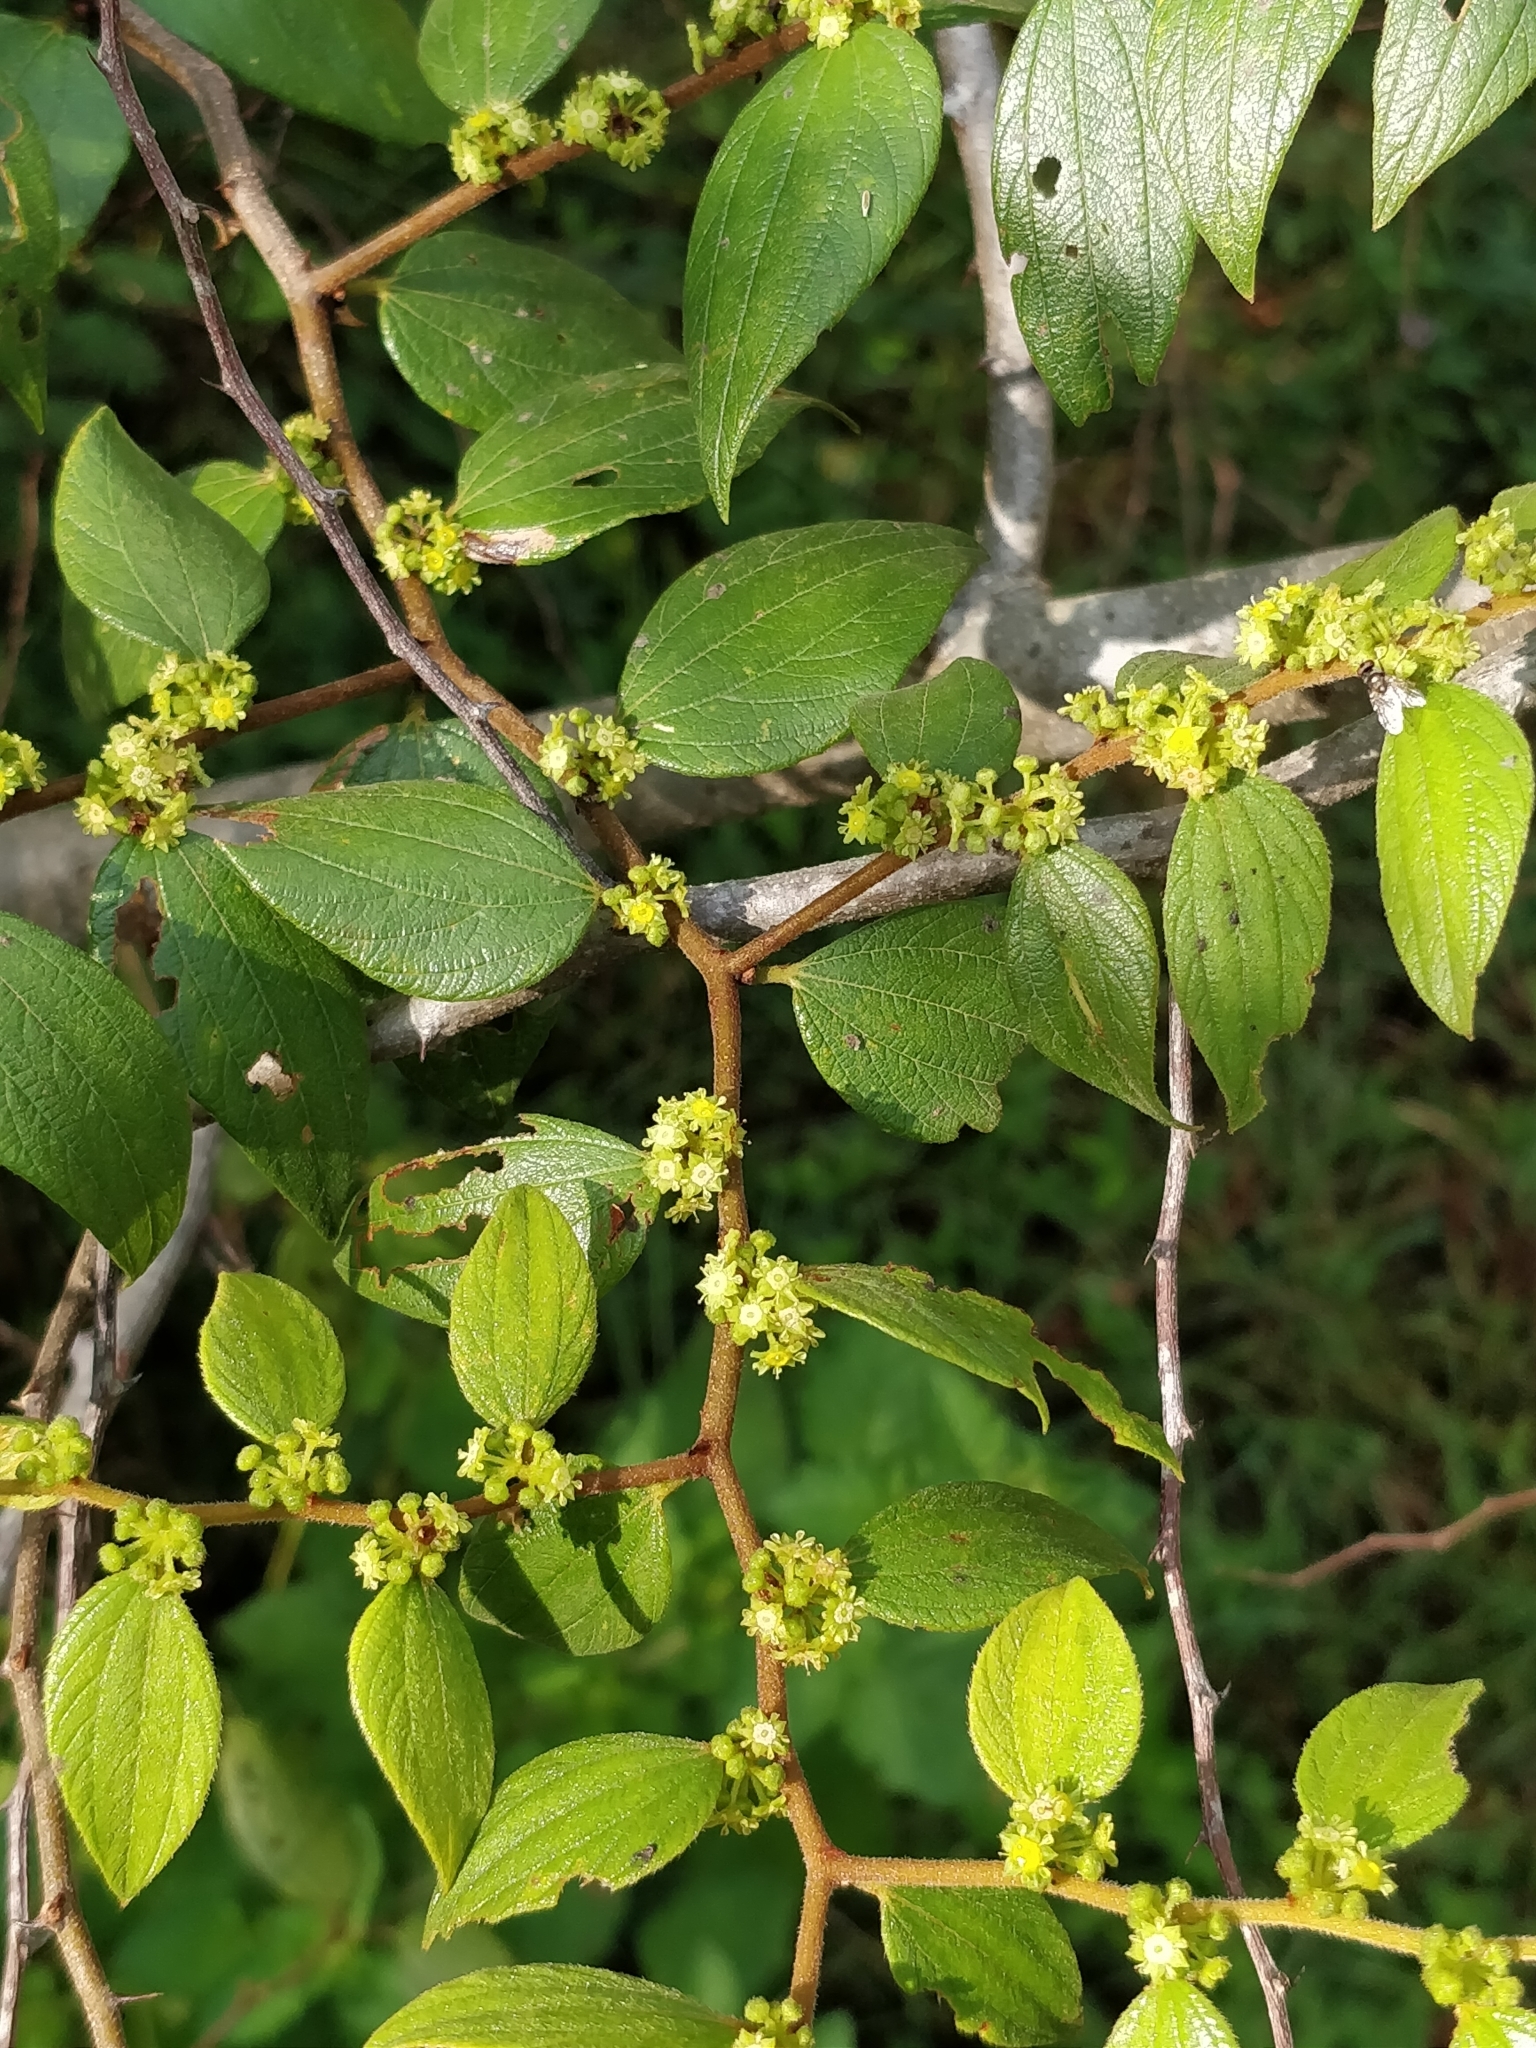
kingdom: Plantae
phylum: Tracheophyta
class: Magnoliopsida
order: Rosales
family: Rhamnaceae
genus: Ziziphus
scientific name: Ziziphus oenopolia
